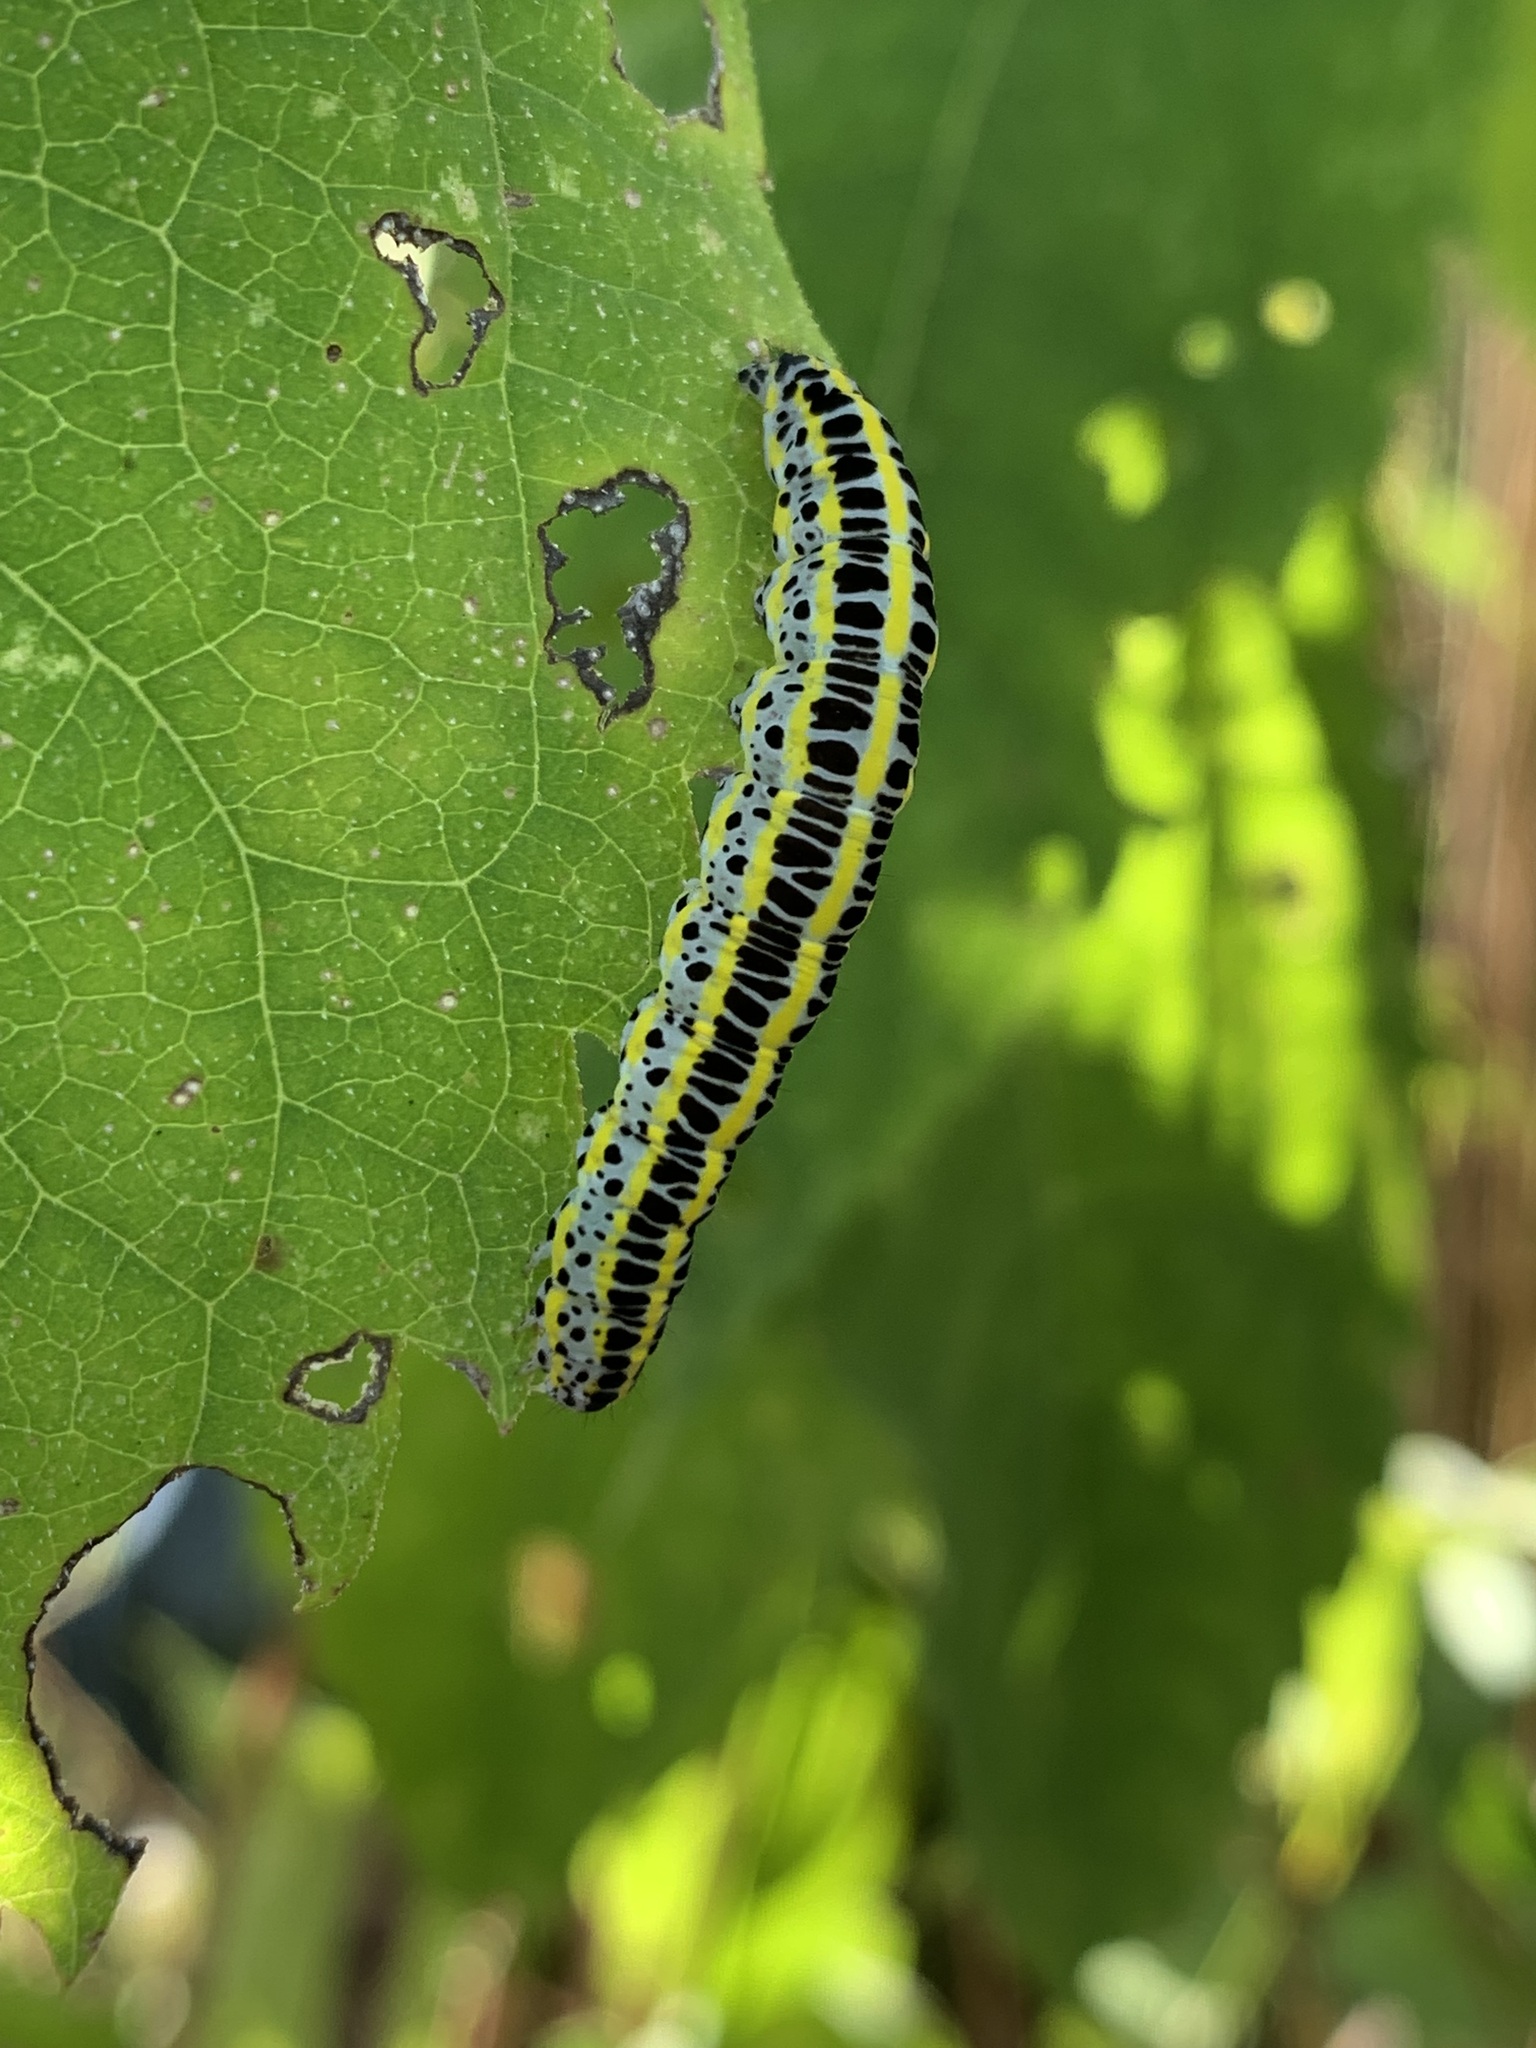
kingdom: Animalia
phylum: Arthropoda
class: Insecta
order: Lepidoptera
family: Noctuidae
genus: Calophasia
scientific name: Calophasia lunula
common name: Toadflax brocade
